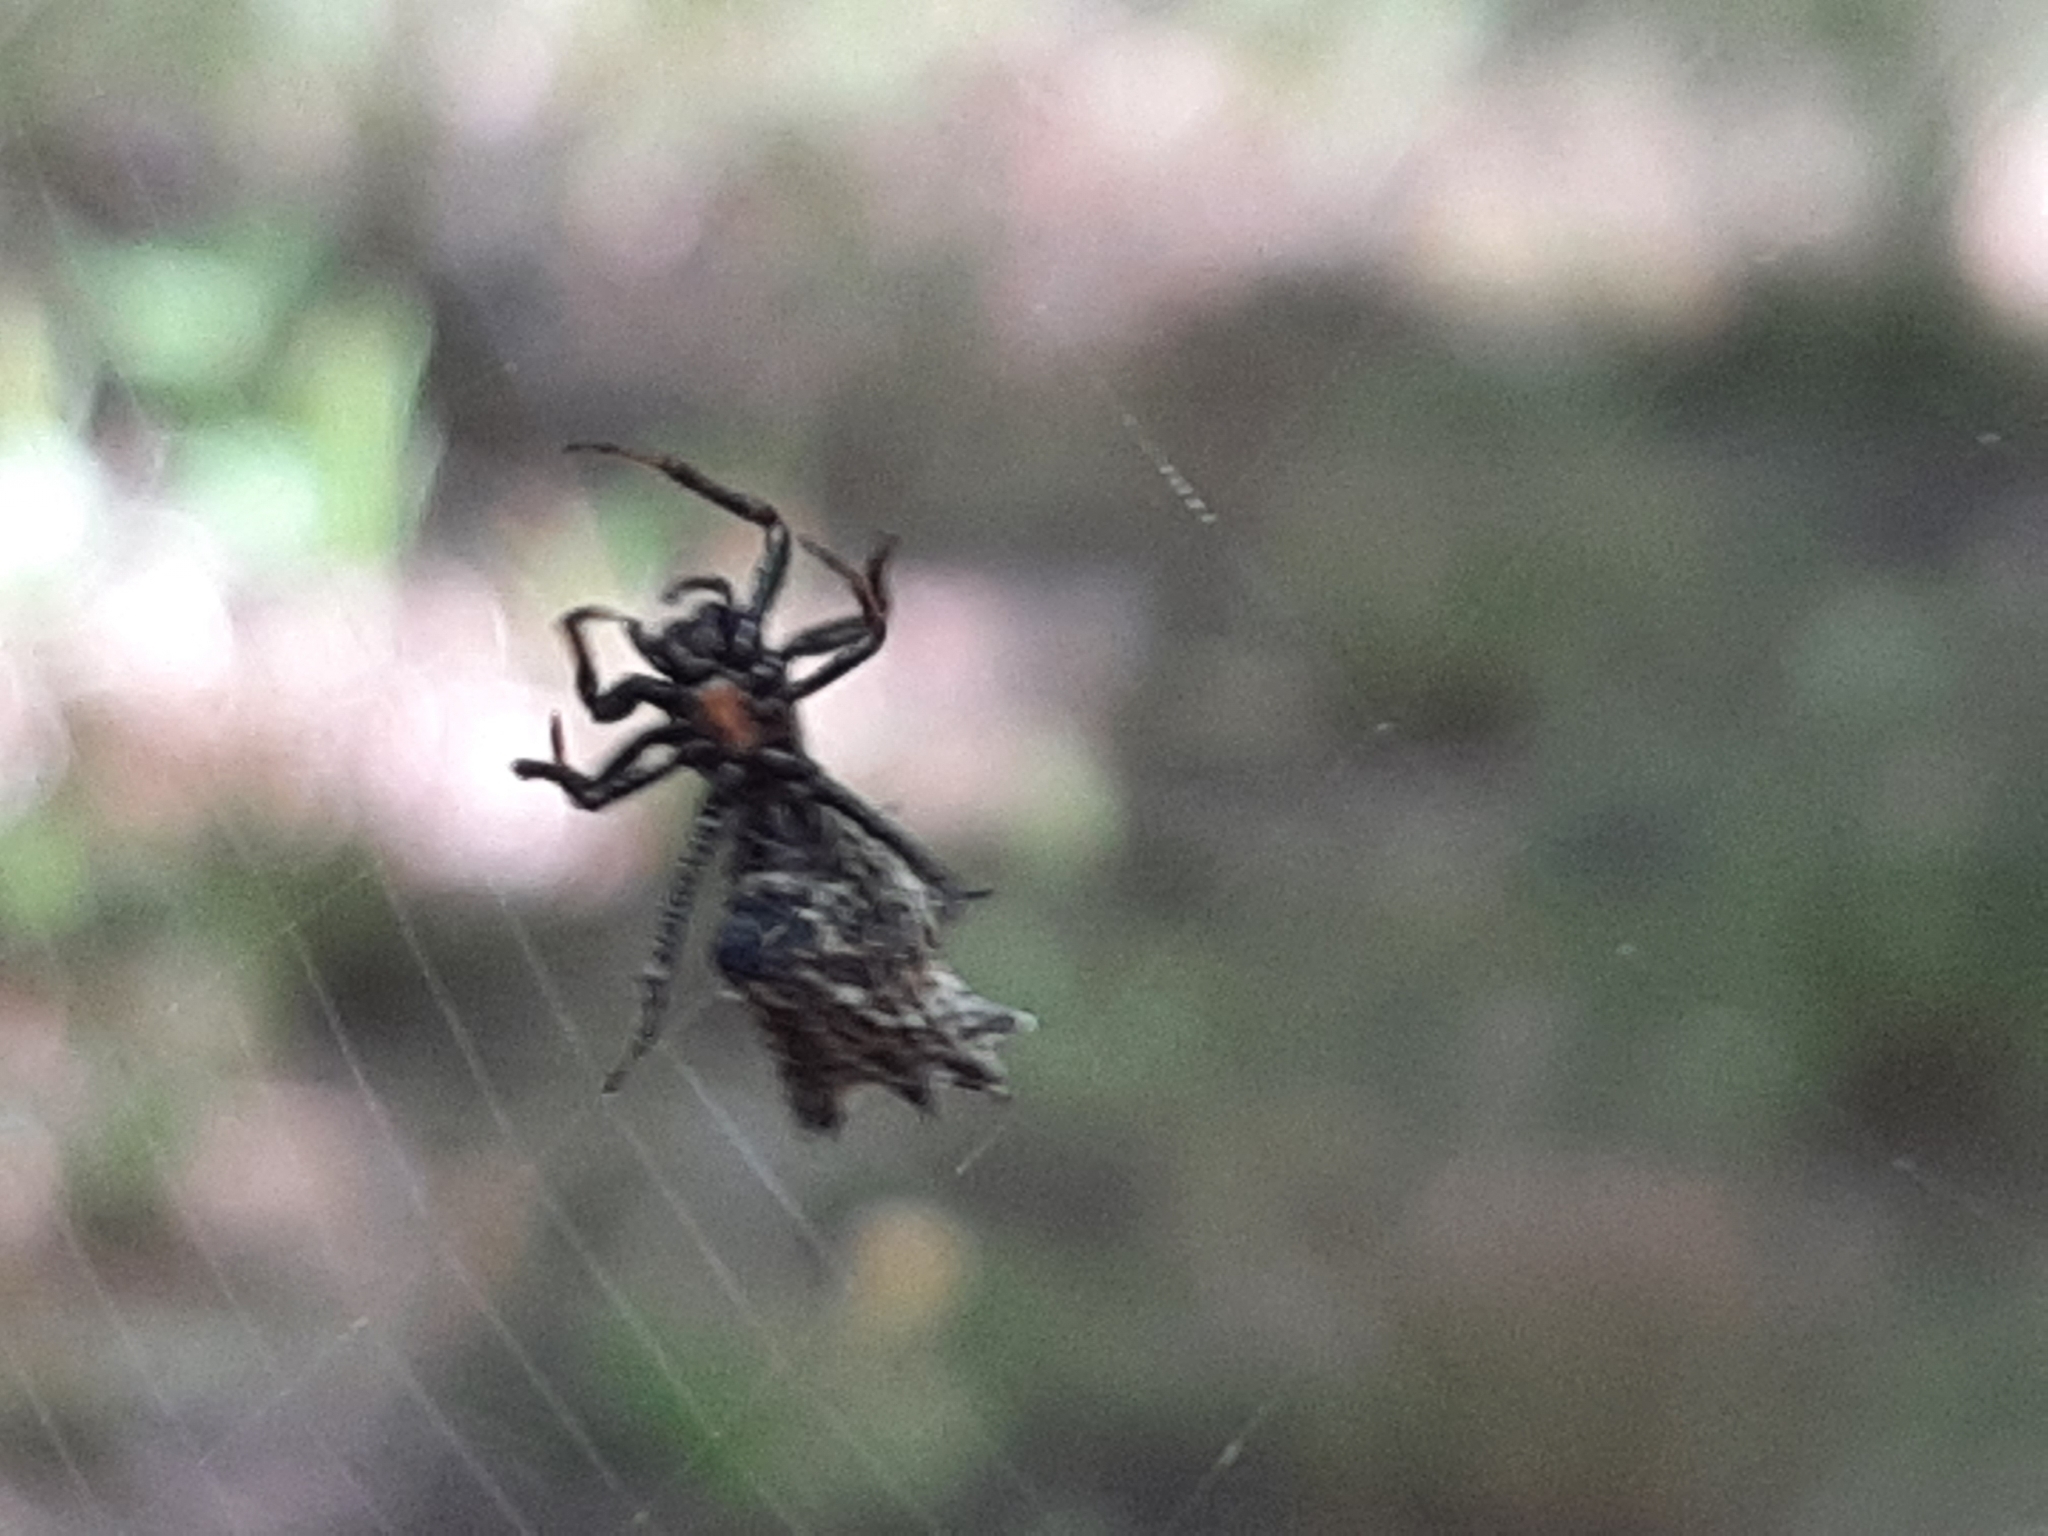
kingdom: Animalia
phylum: Arthropoda
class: Arachnida
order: Araneae
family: Araneidae
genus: Micrathena
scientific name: Micrathena gracilis
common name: Orb weavers
